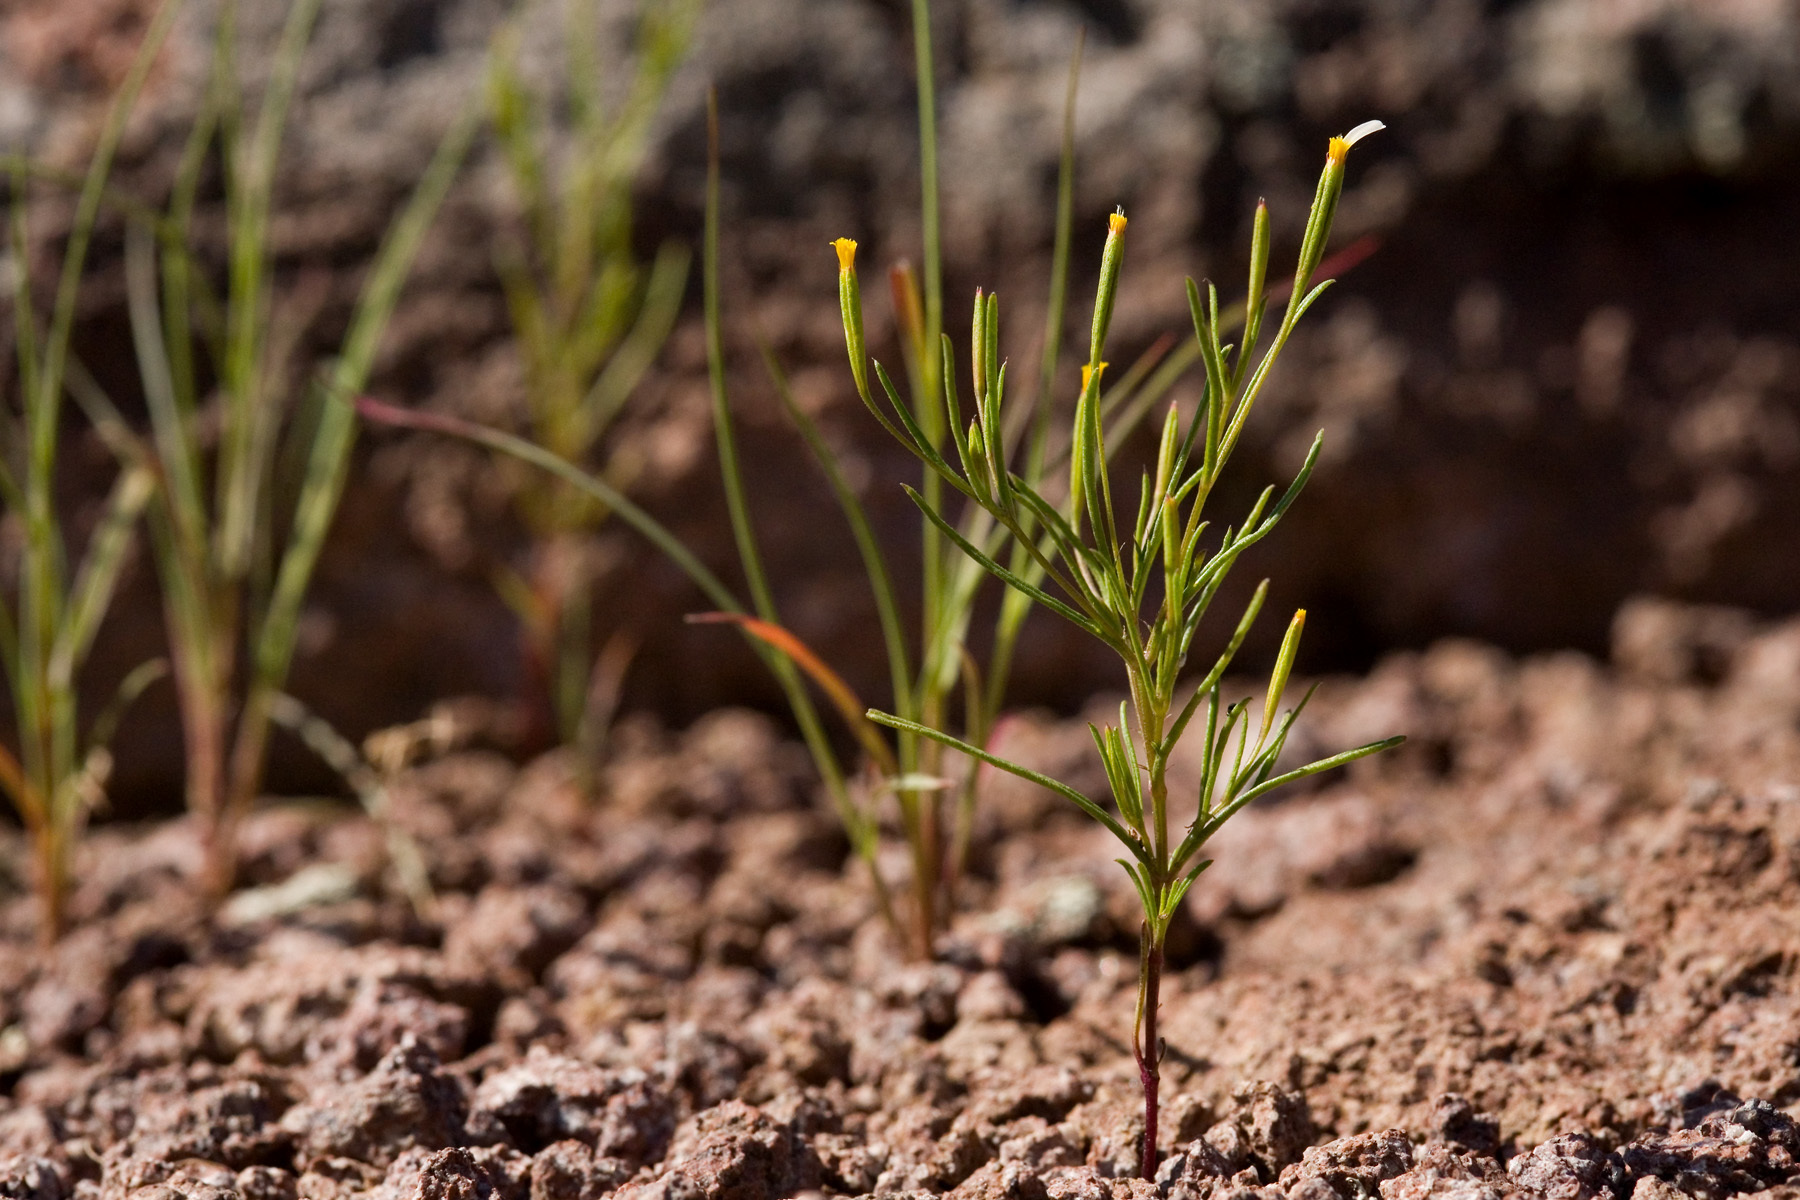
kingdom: Plantae
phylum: Tracheophyta
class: Magnoliopsida
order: Asterales
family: Asteraceae
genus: Tagetes
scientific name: Tagetes micrantha
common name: Licorice marigold
